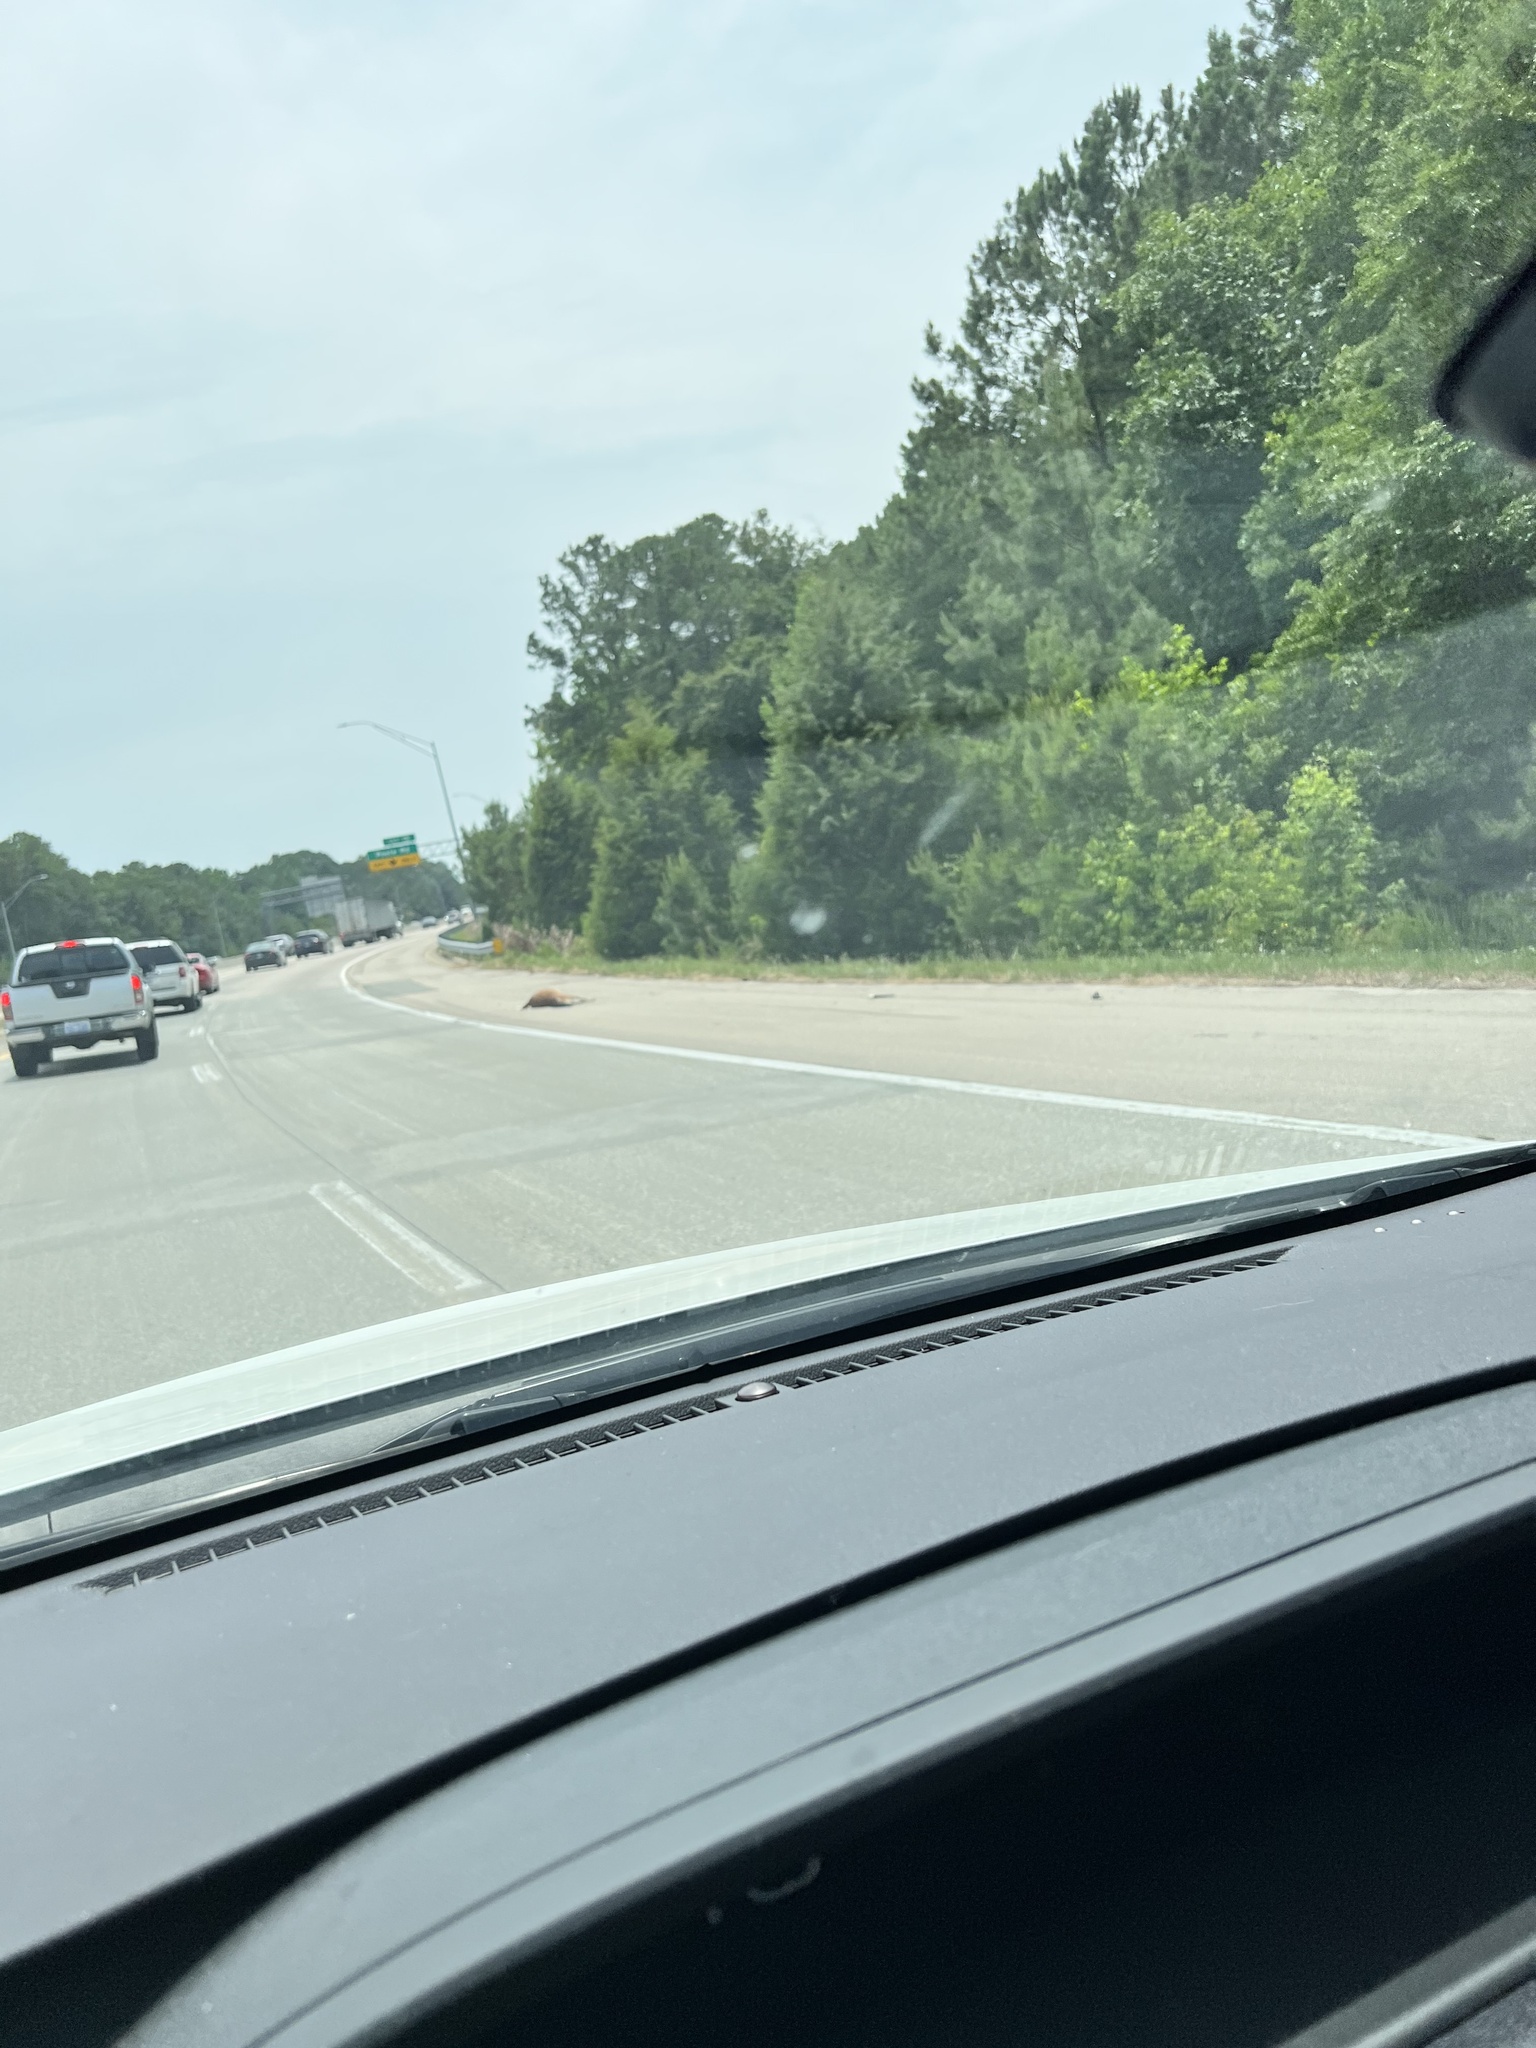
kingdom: Animalia
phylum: Chordata
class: Mammalia
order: Artiodactyla
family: Cervidae
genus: Odocoileus
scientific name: Odocoileus virginianus
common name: White-tailed deer
